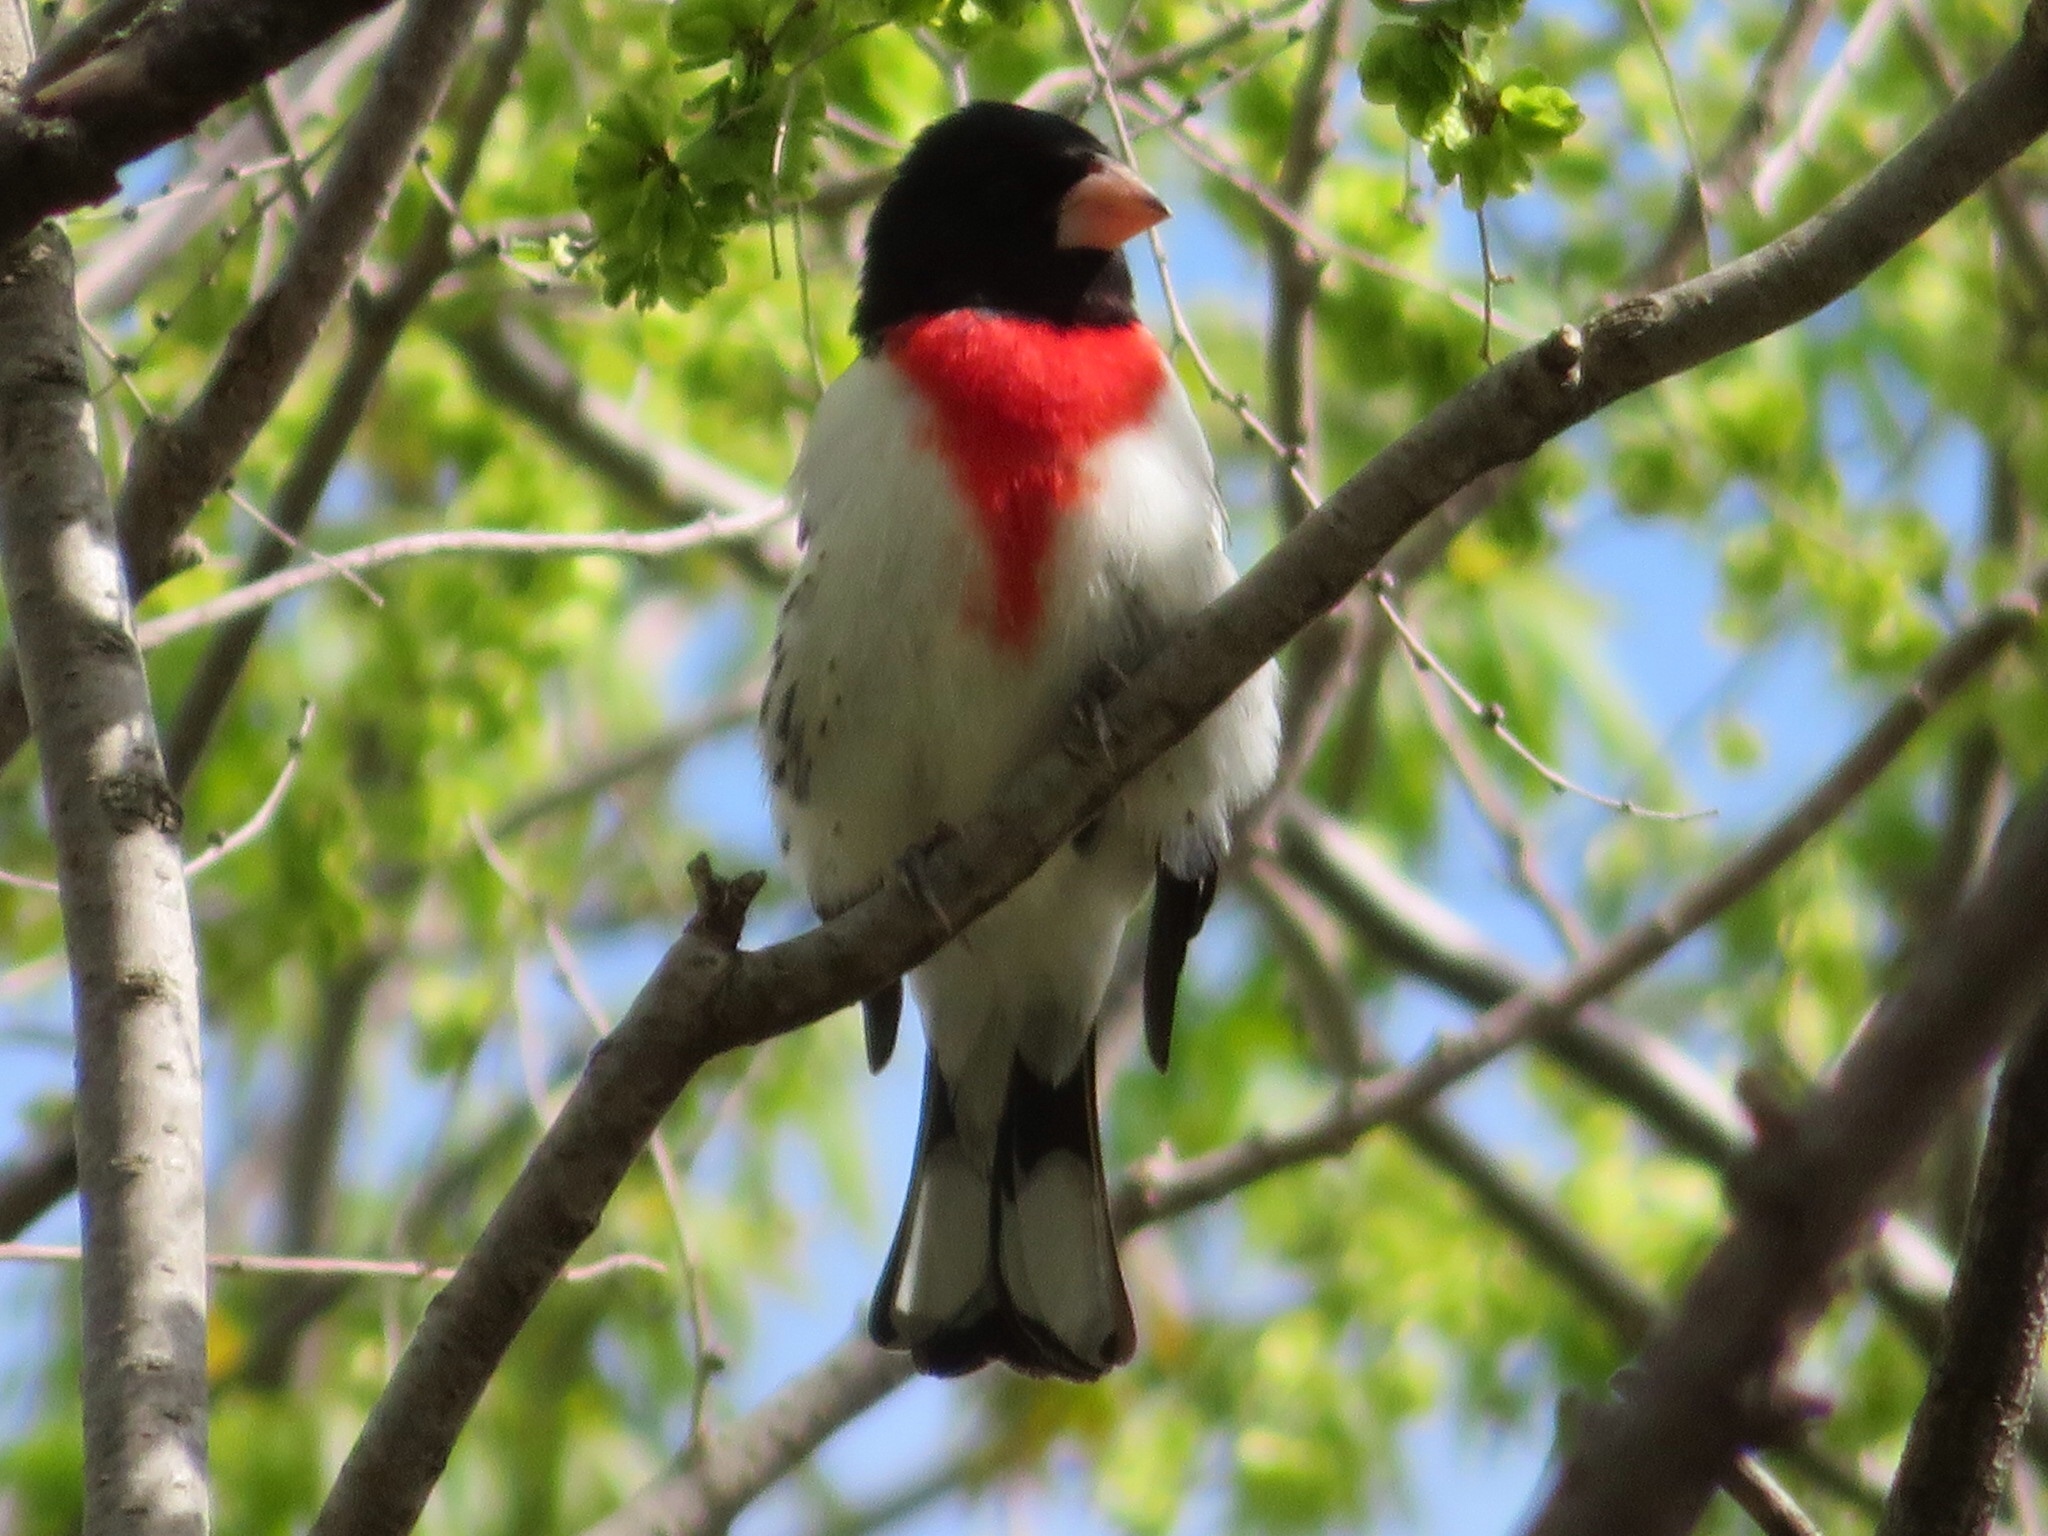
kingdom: Animalia
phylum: Chordata
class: Aves
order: Passeriformes
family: Cardinalidae
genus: Pheucticus
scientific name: Pheucticus ludovicianus
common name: Rose-breasted grosbeak
